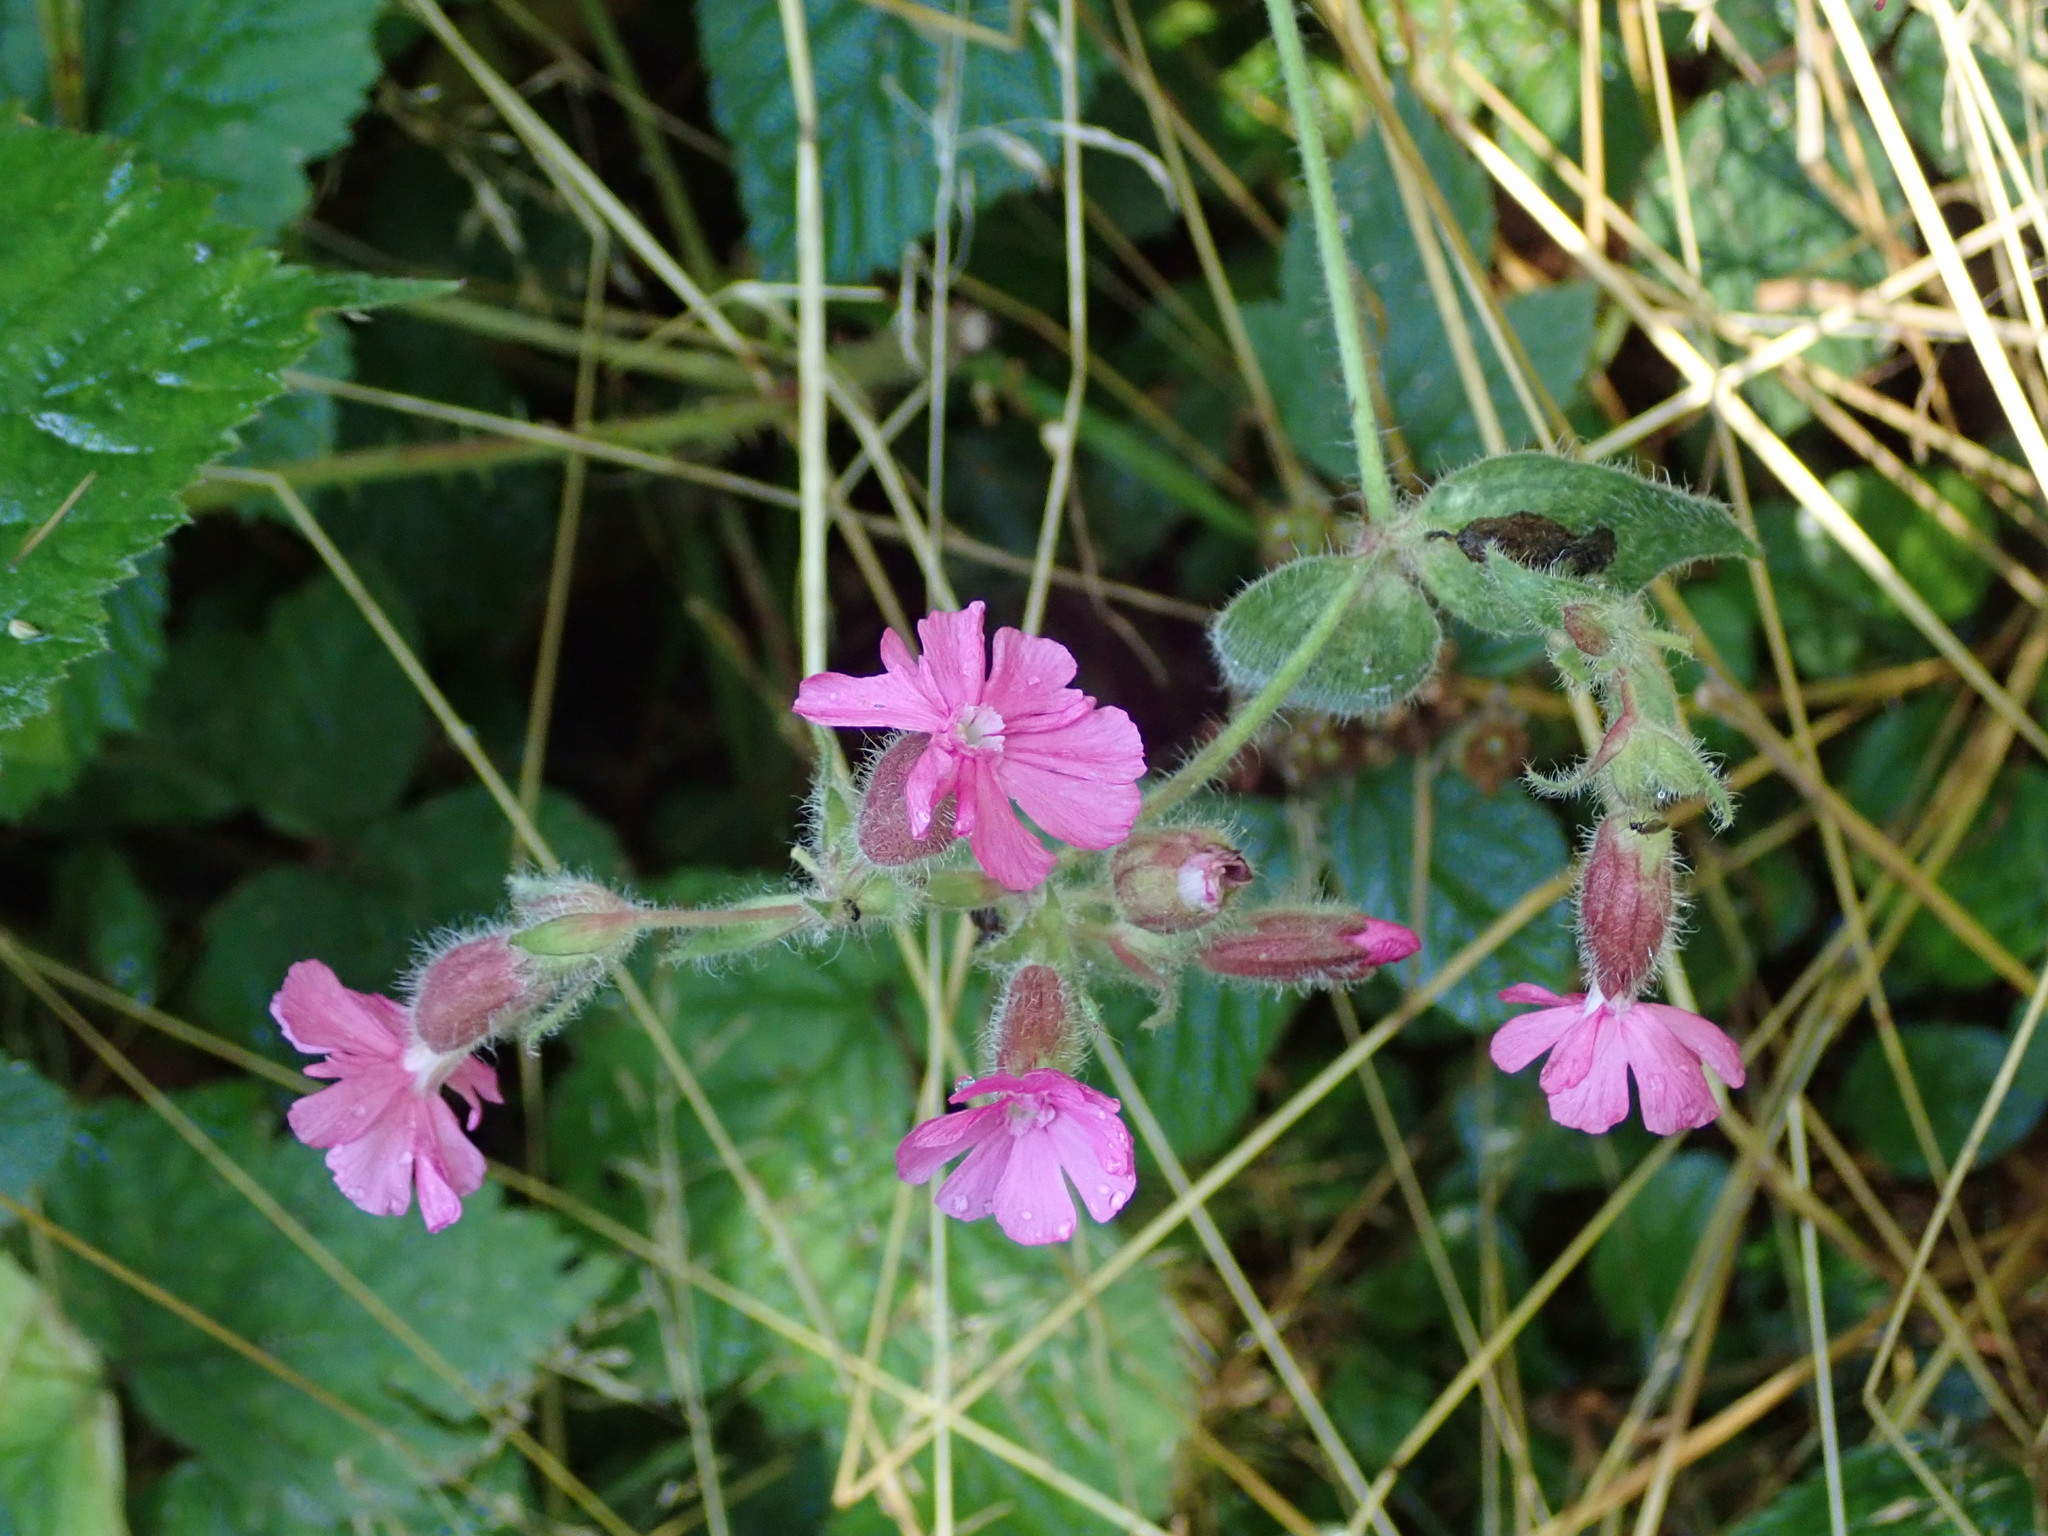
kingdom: Plantae
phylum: Tracheophyta
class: Magnoliopsida
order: Caryophyllales
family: Caryophyllaceae
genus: Silene
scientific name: Silene dioica
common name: Red campion
